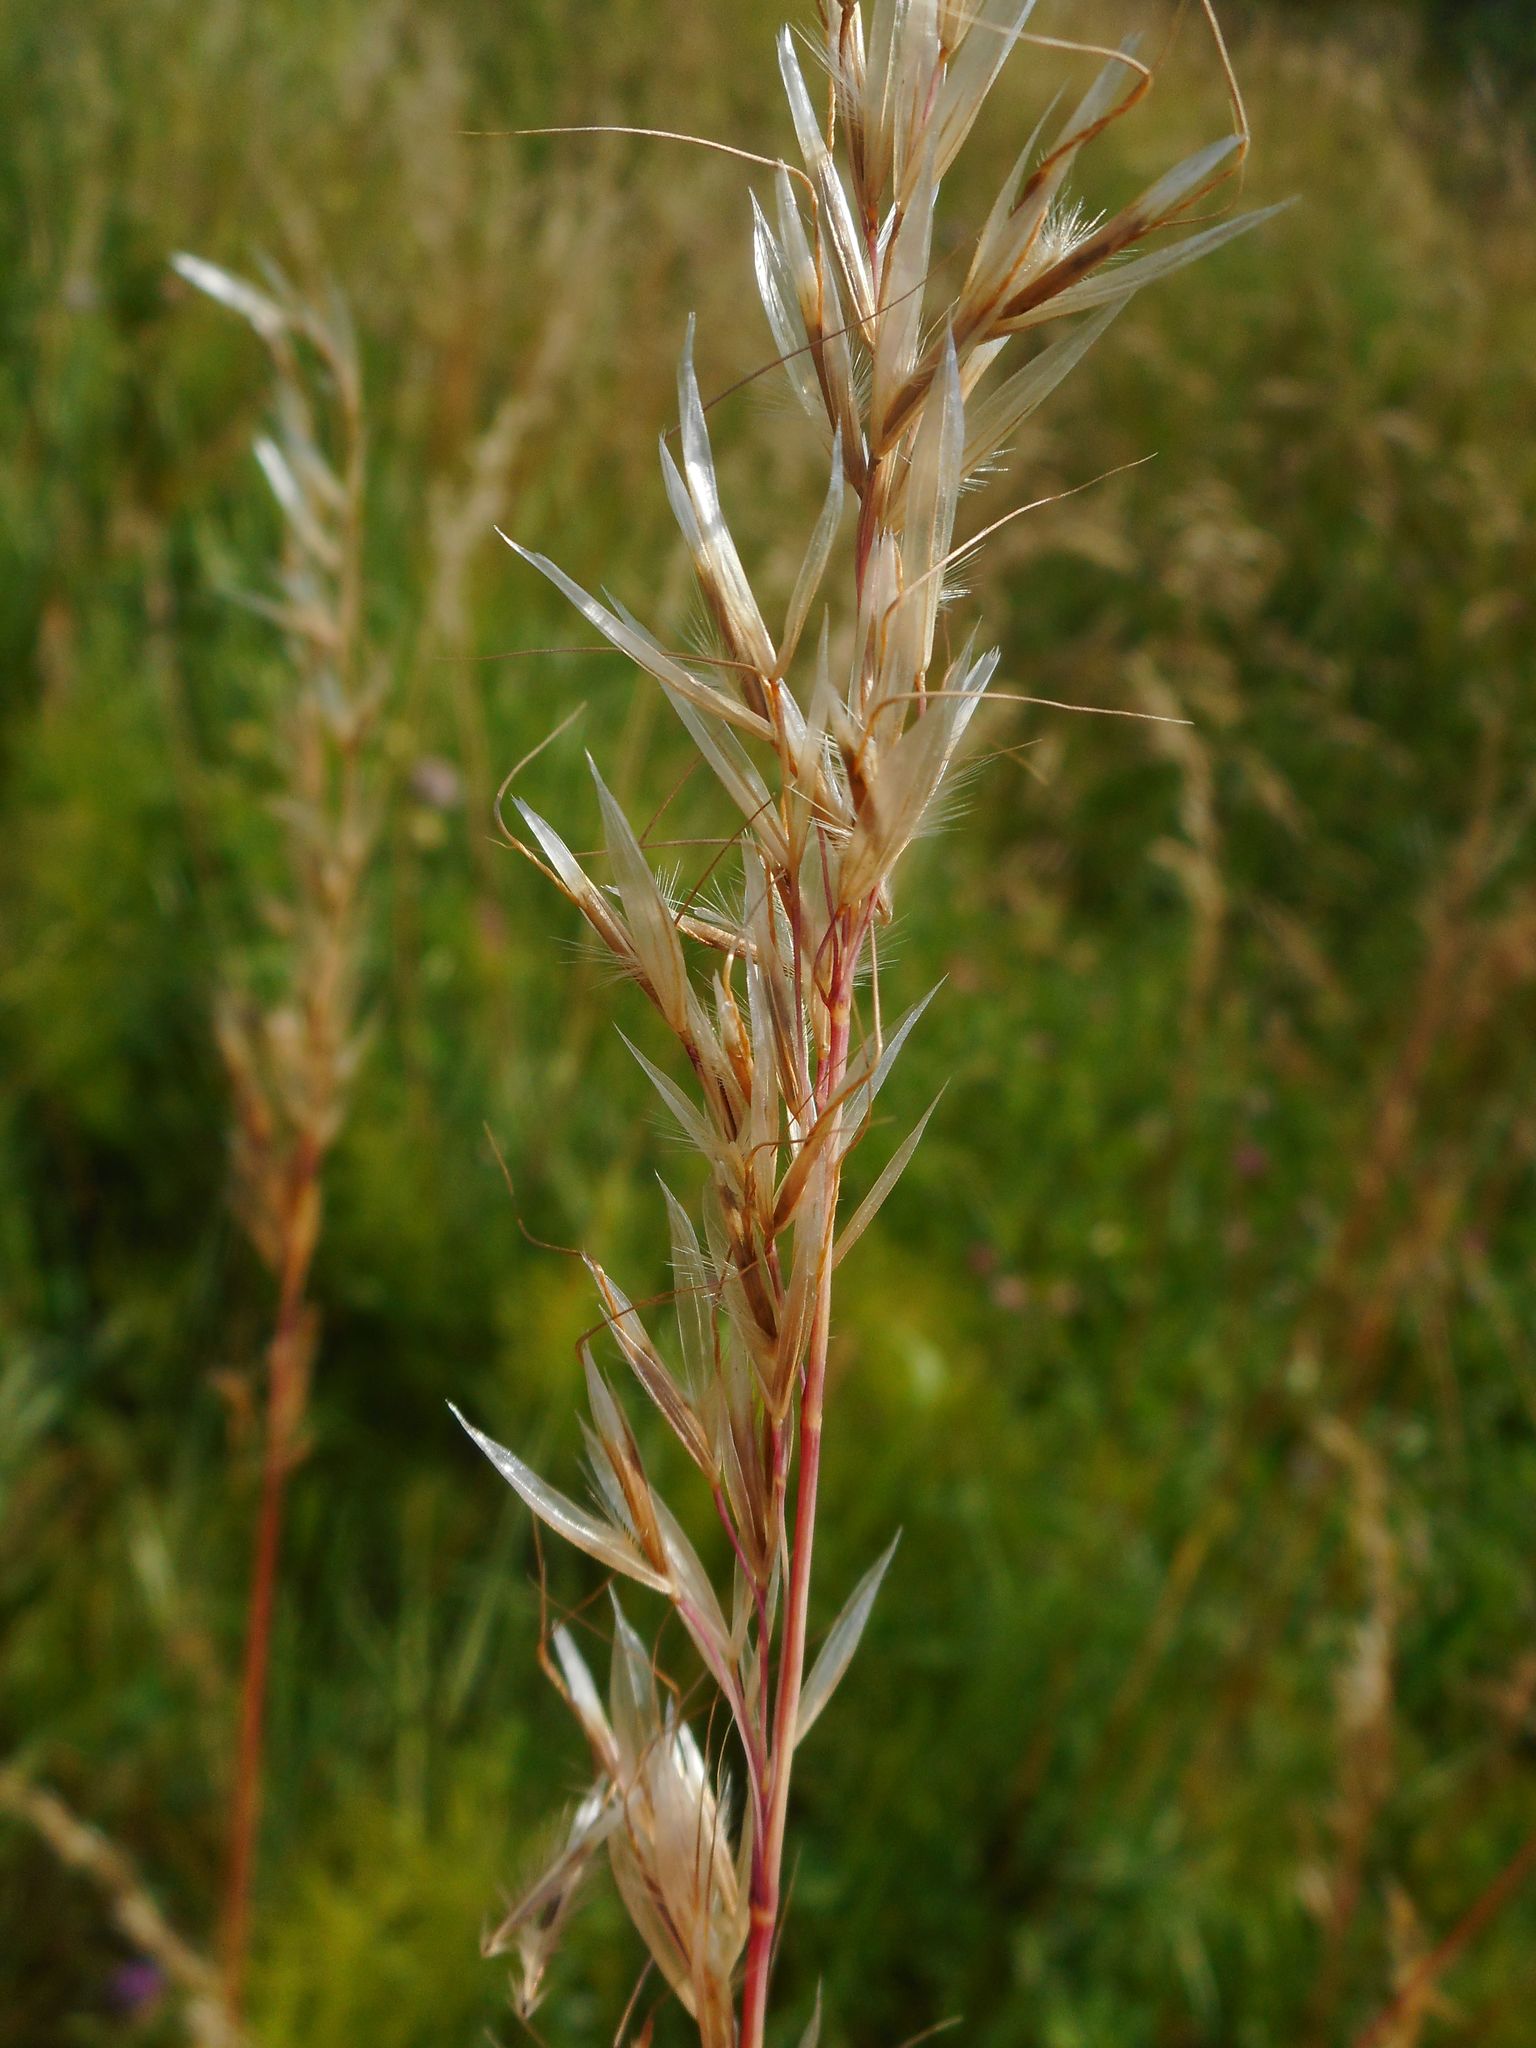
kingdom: Plantae
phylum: Tracheophyta
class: Liliopsida
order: Poales
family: Poaceae
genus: Avenula
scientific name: Avenula pubescens
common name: Downy alpine oatgrass
